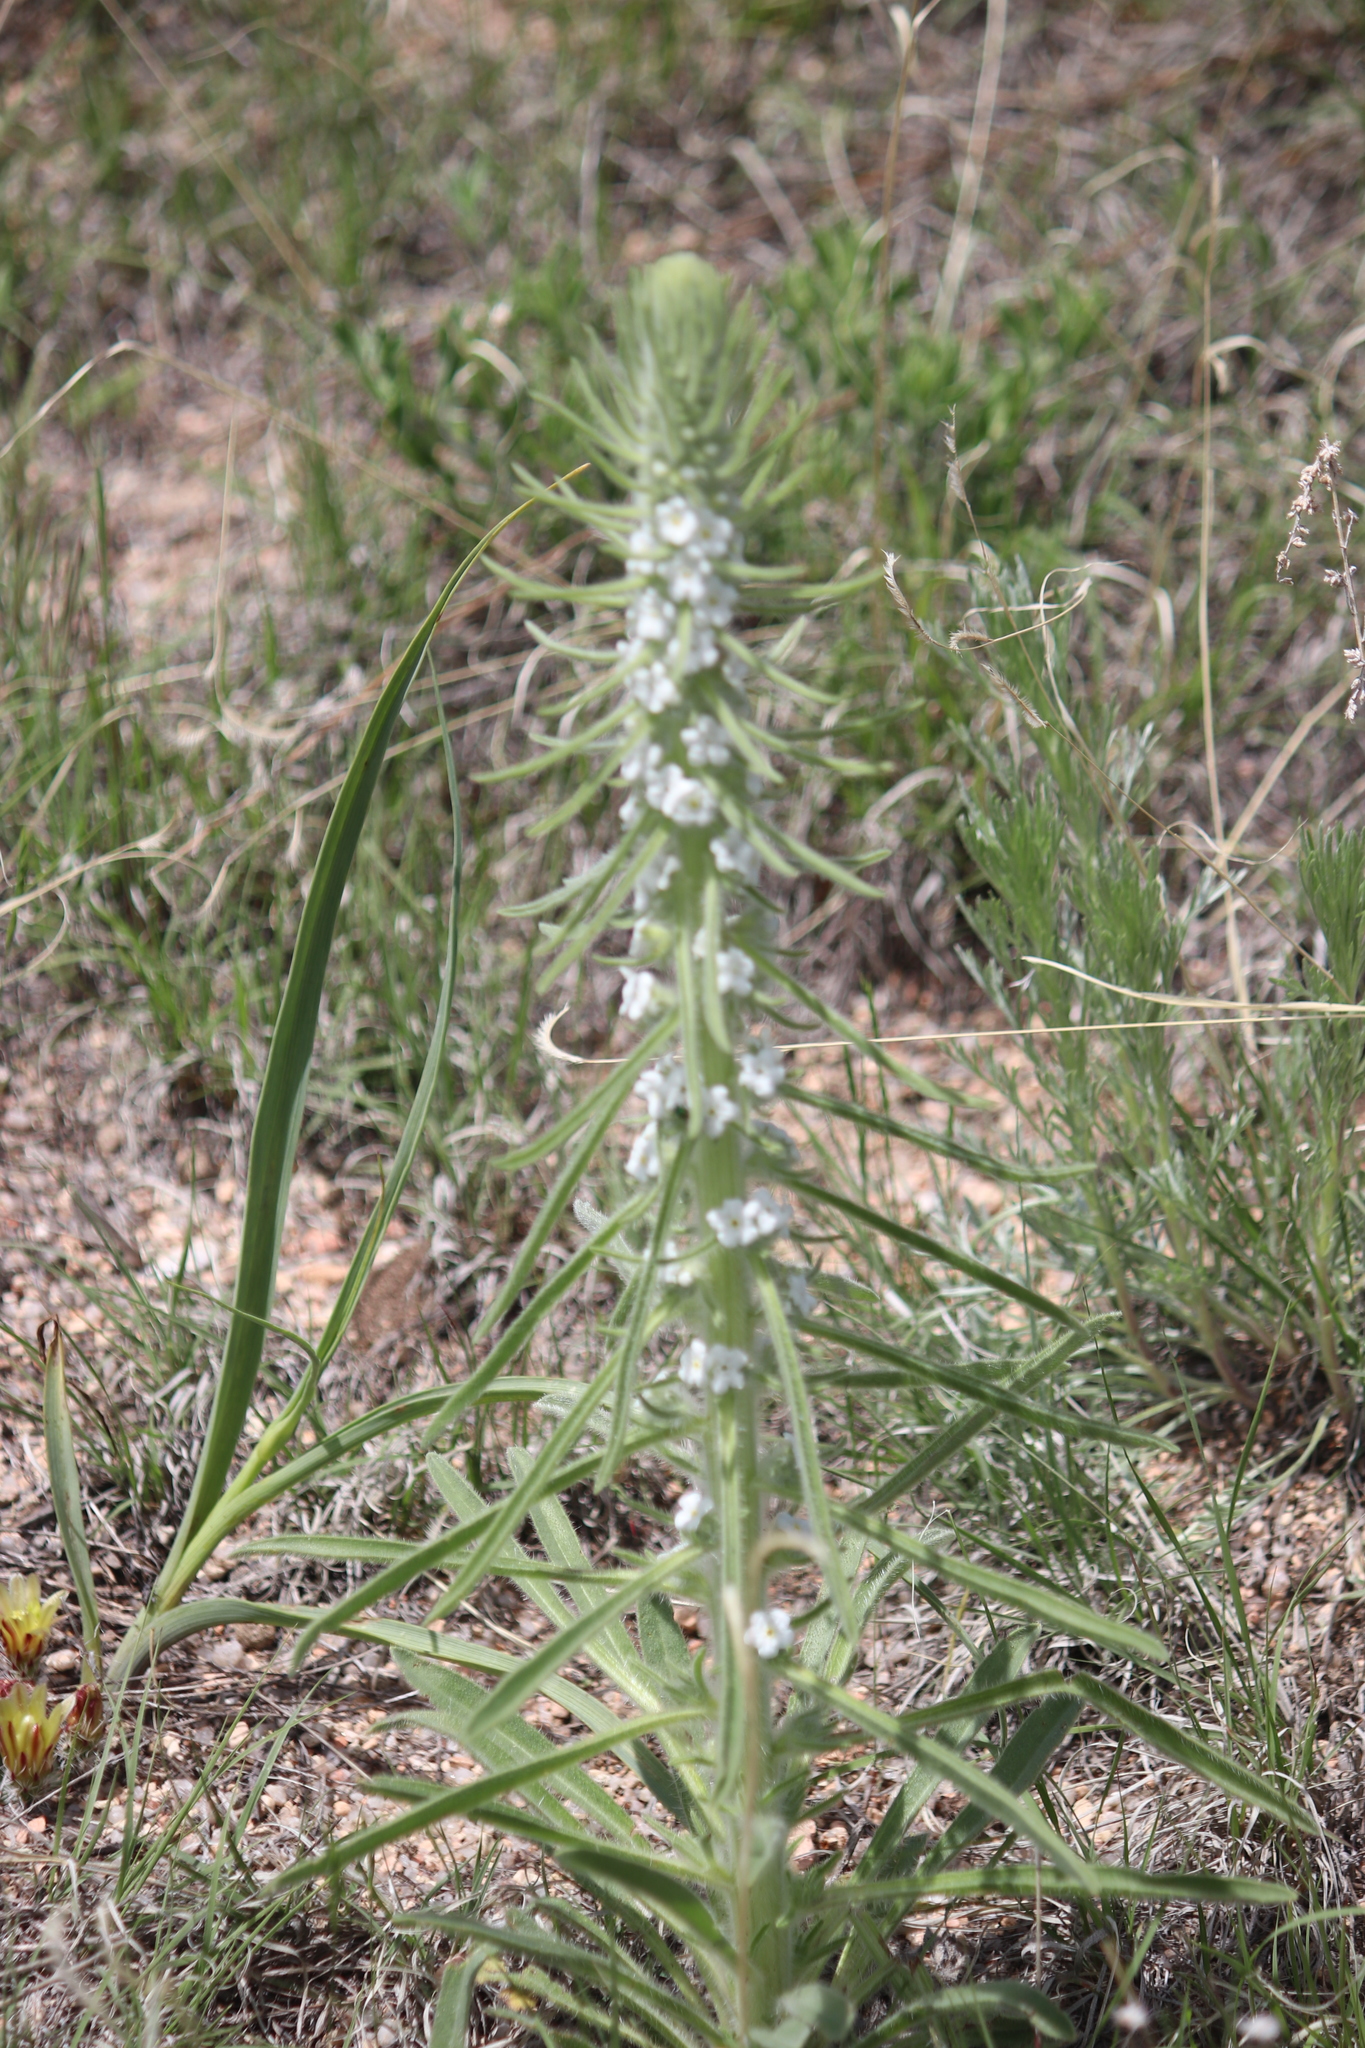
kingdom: Plantae
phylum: Tracheophyta
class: Magnoliopsida
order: Boraginales
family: Boraginaceae
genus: Oreocarya
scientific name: Oreocarya virgata
